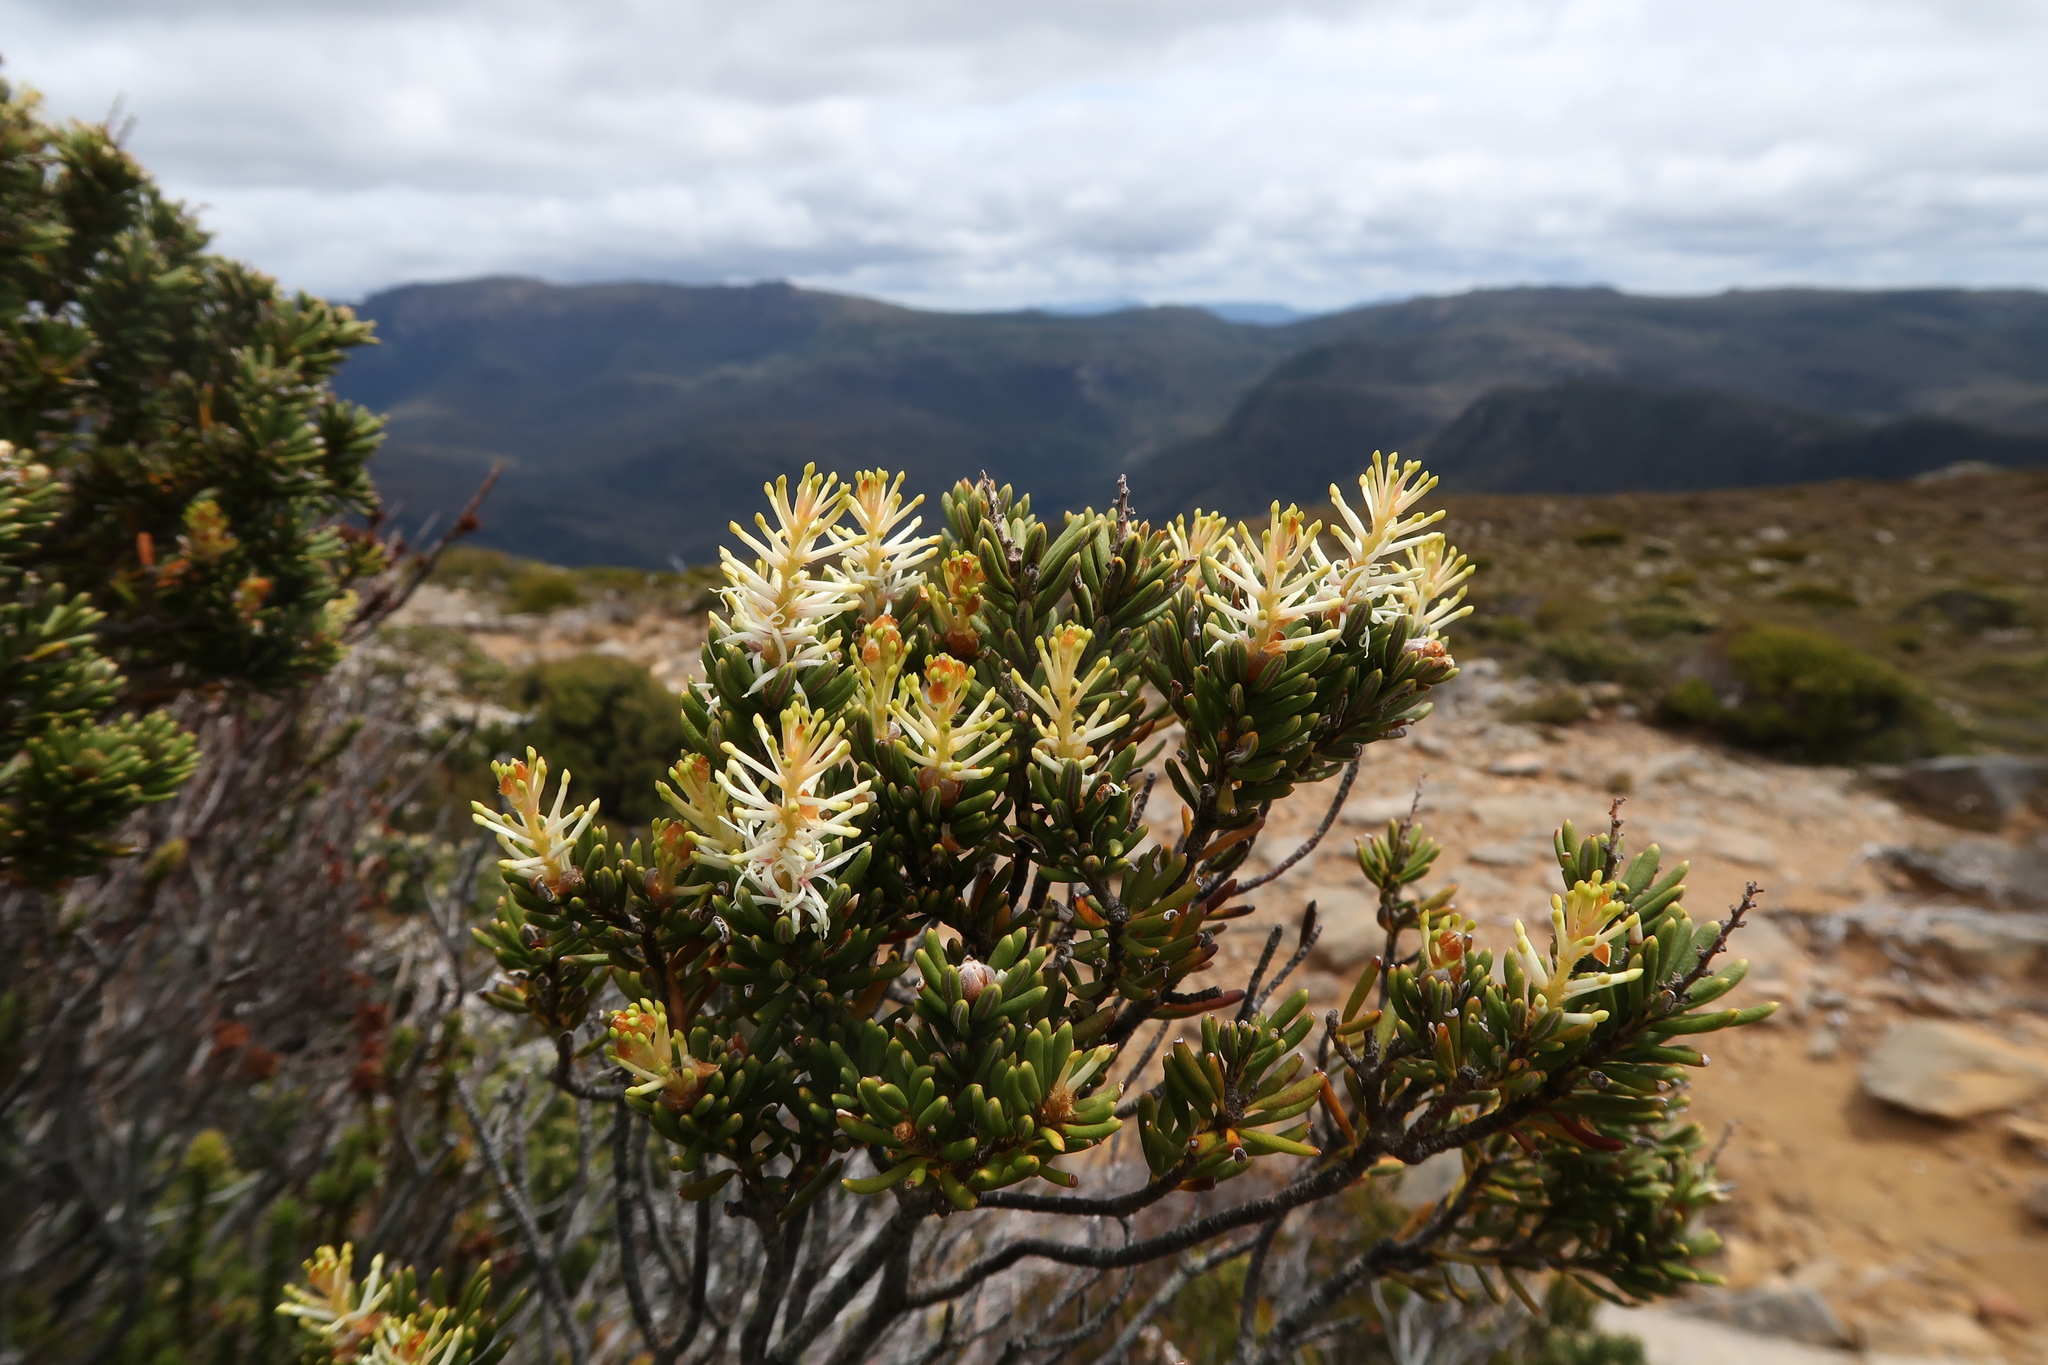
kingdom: Plantae
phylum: Tracheophyta
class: Magnoliopsida
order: Proteales
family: Proteaceae
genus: Orites
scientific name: Orites revolutus
